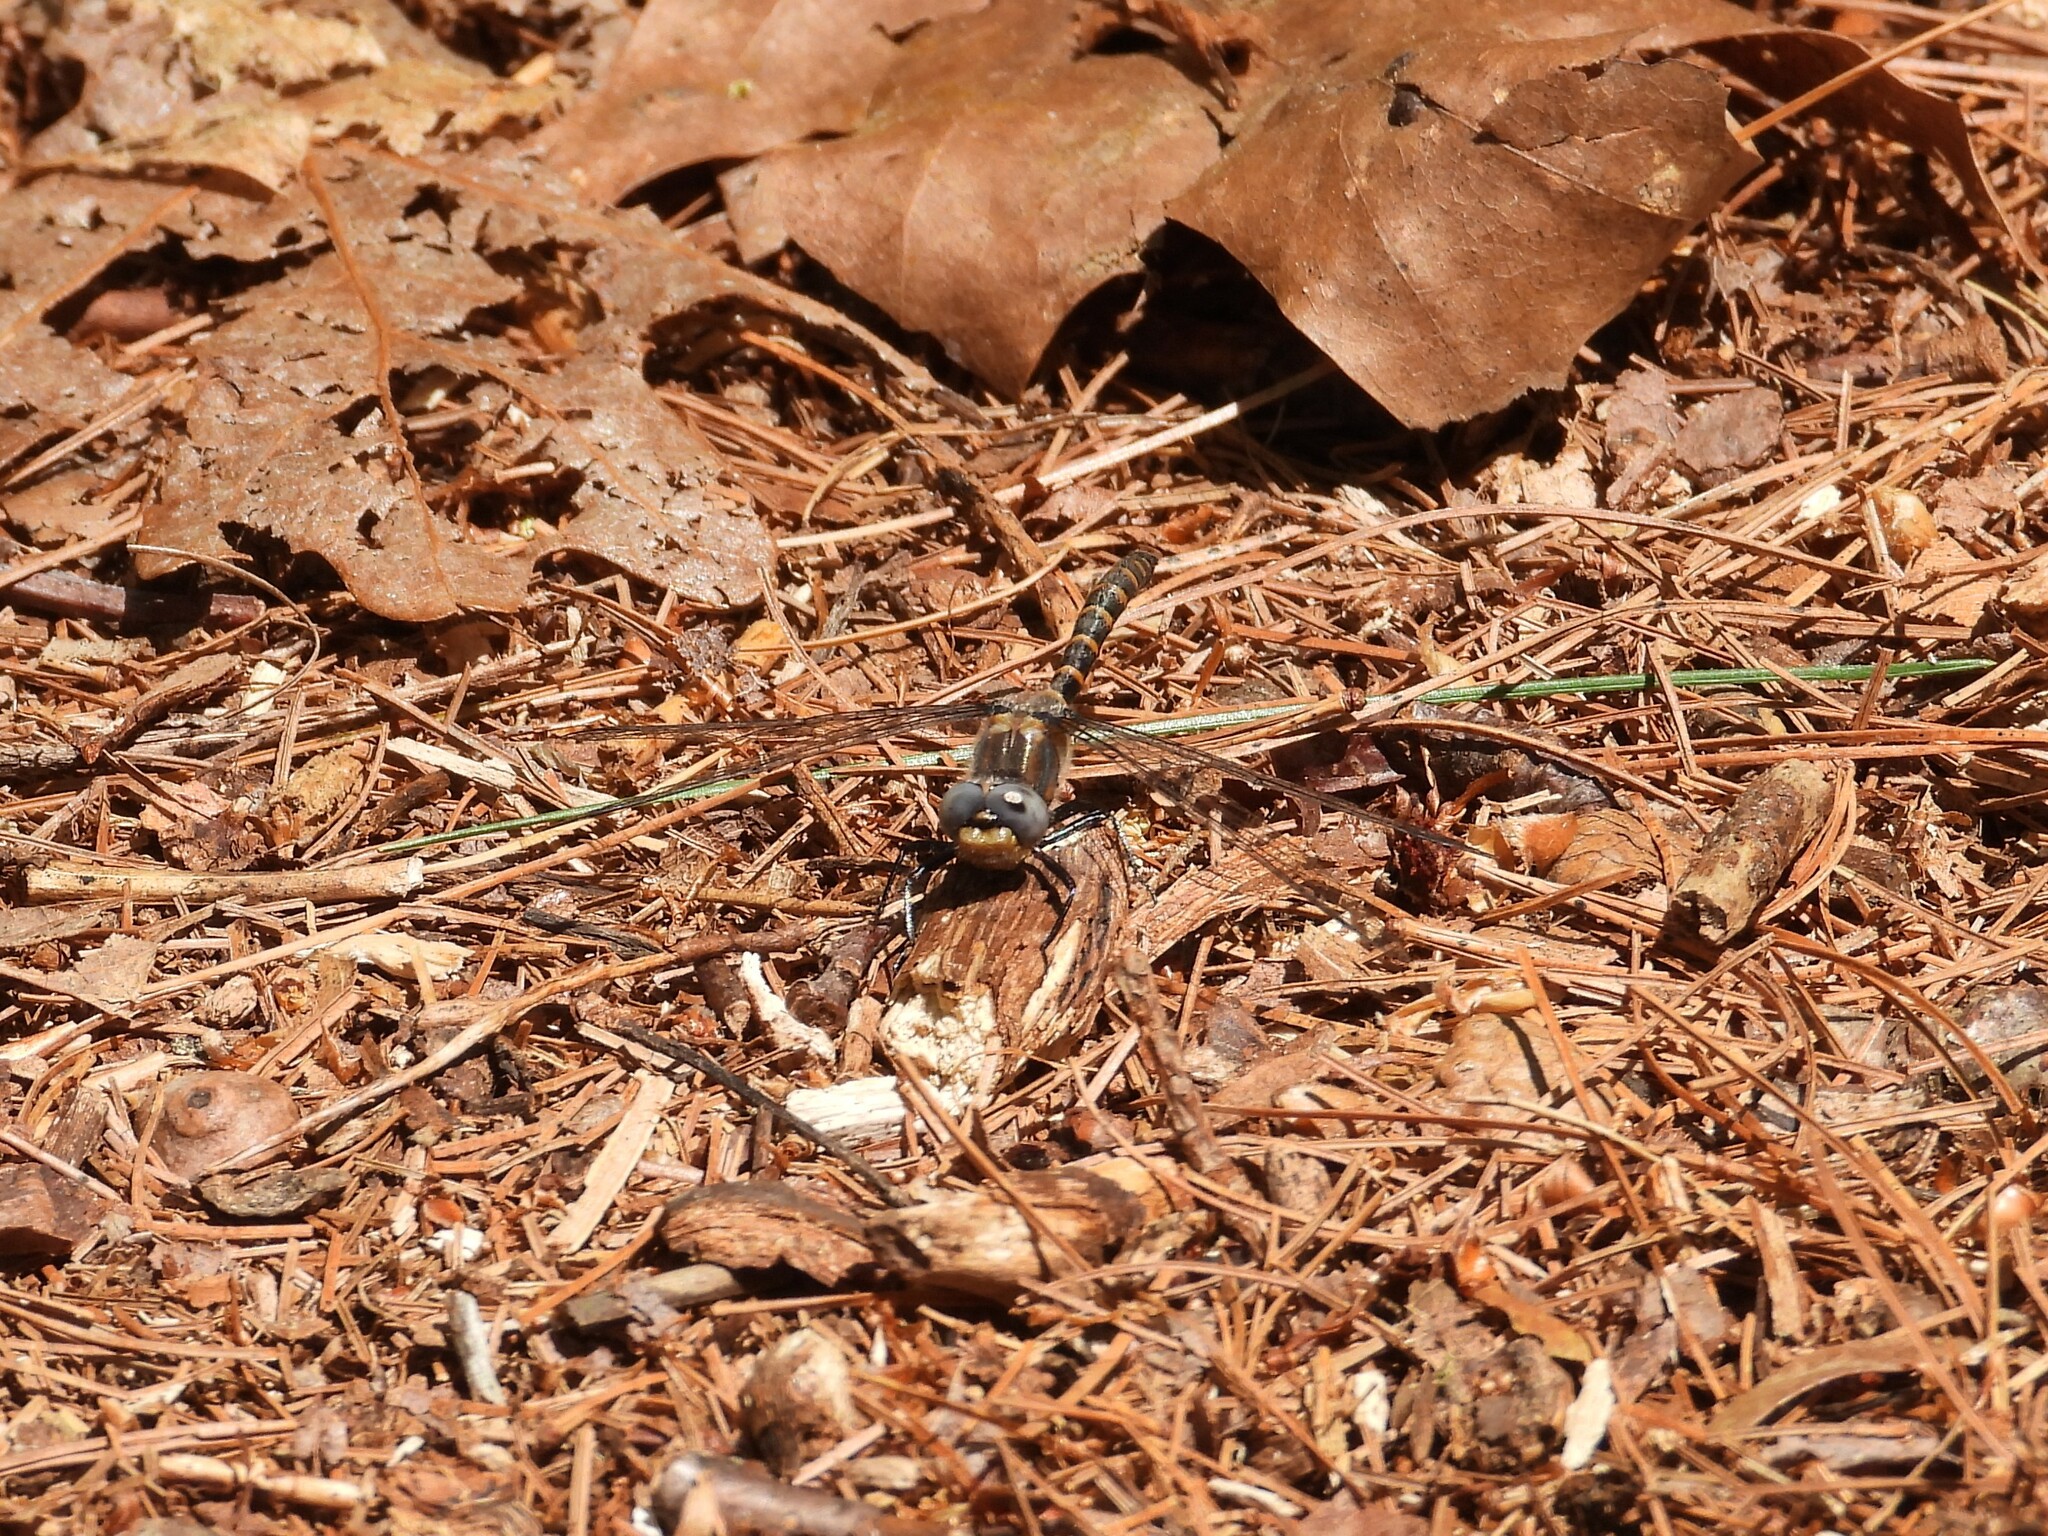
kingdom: Animalia
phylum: Arthropoda
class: Insecta
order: Odonata
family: Corduliidae
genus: Williamsonia
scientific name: Williamsonia lintneri
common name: Ringed boghaunter
